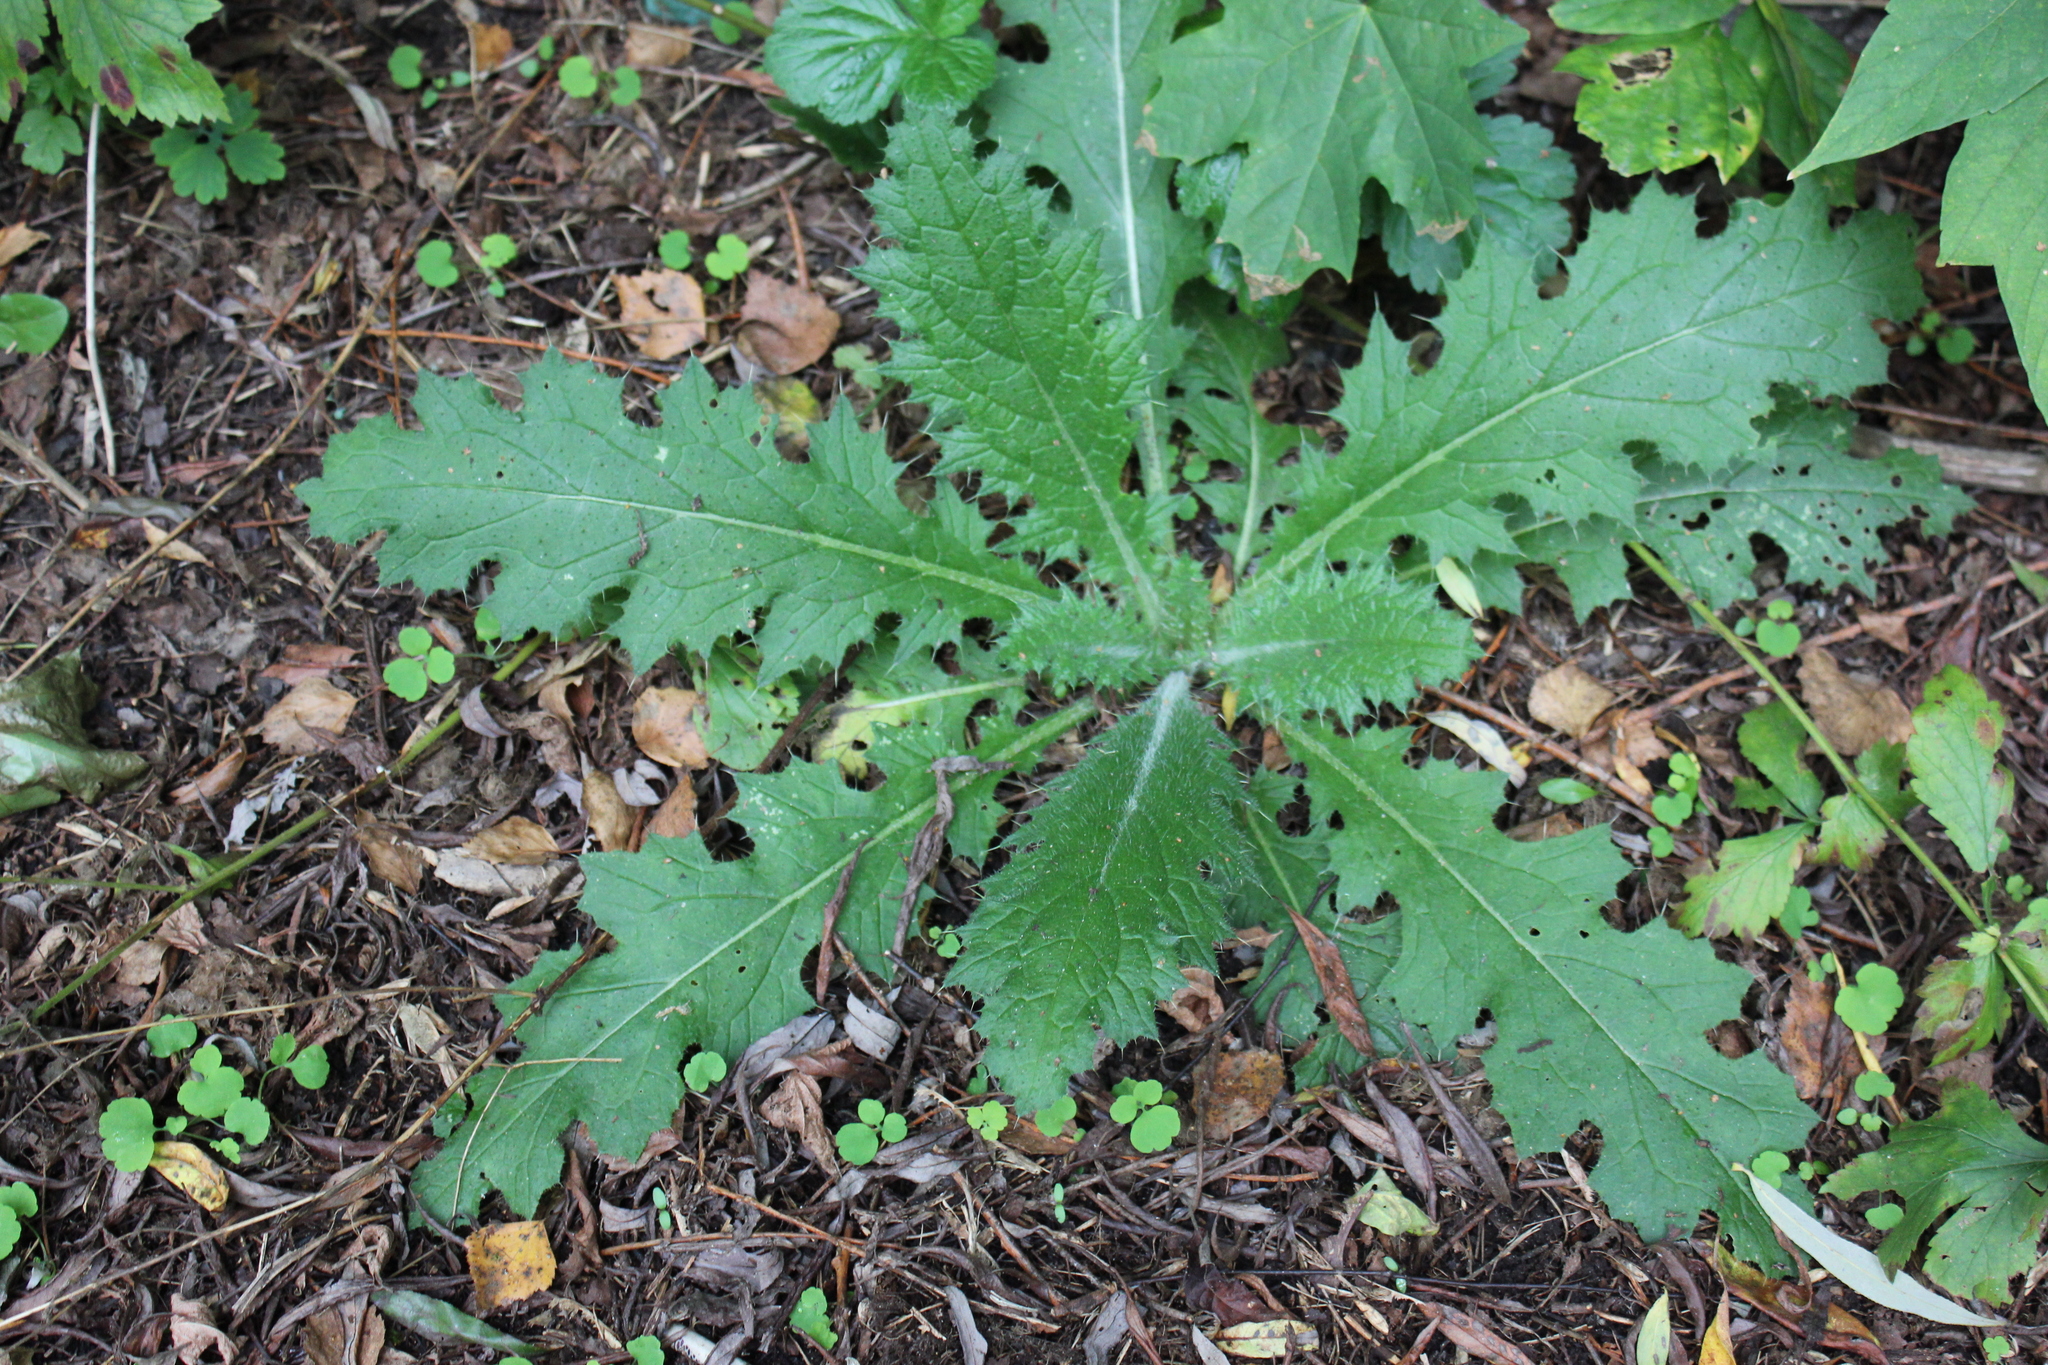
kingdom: Plantae
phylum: Tracheophyta
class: Magnoliopsida
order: Asterales
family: Asteraceae
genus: Cirsium
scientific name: Cirsium vulgare
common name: Bull thistle
